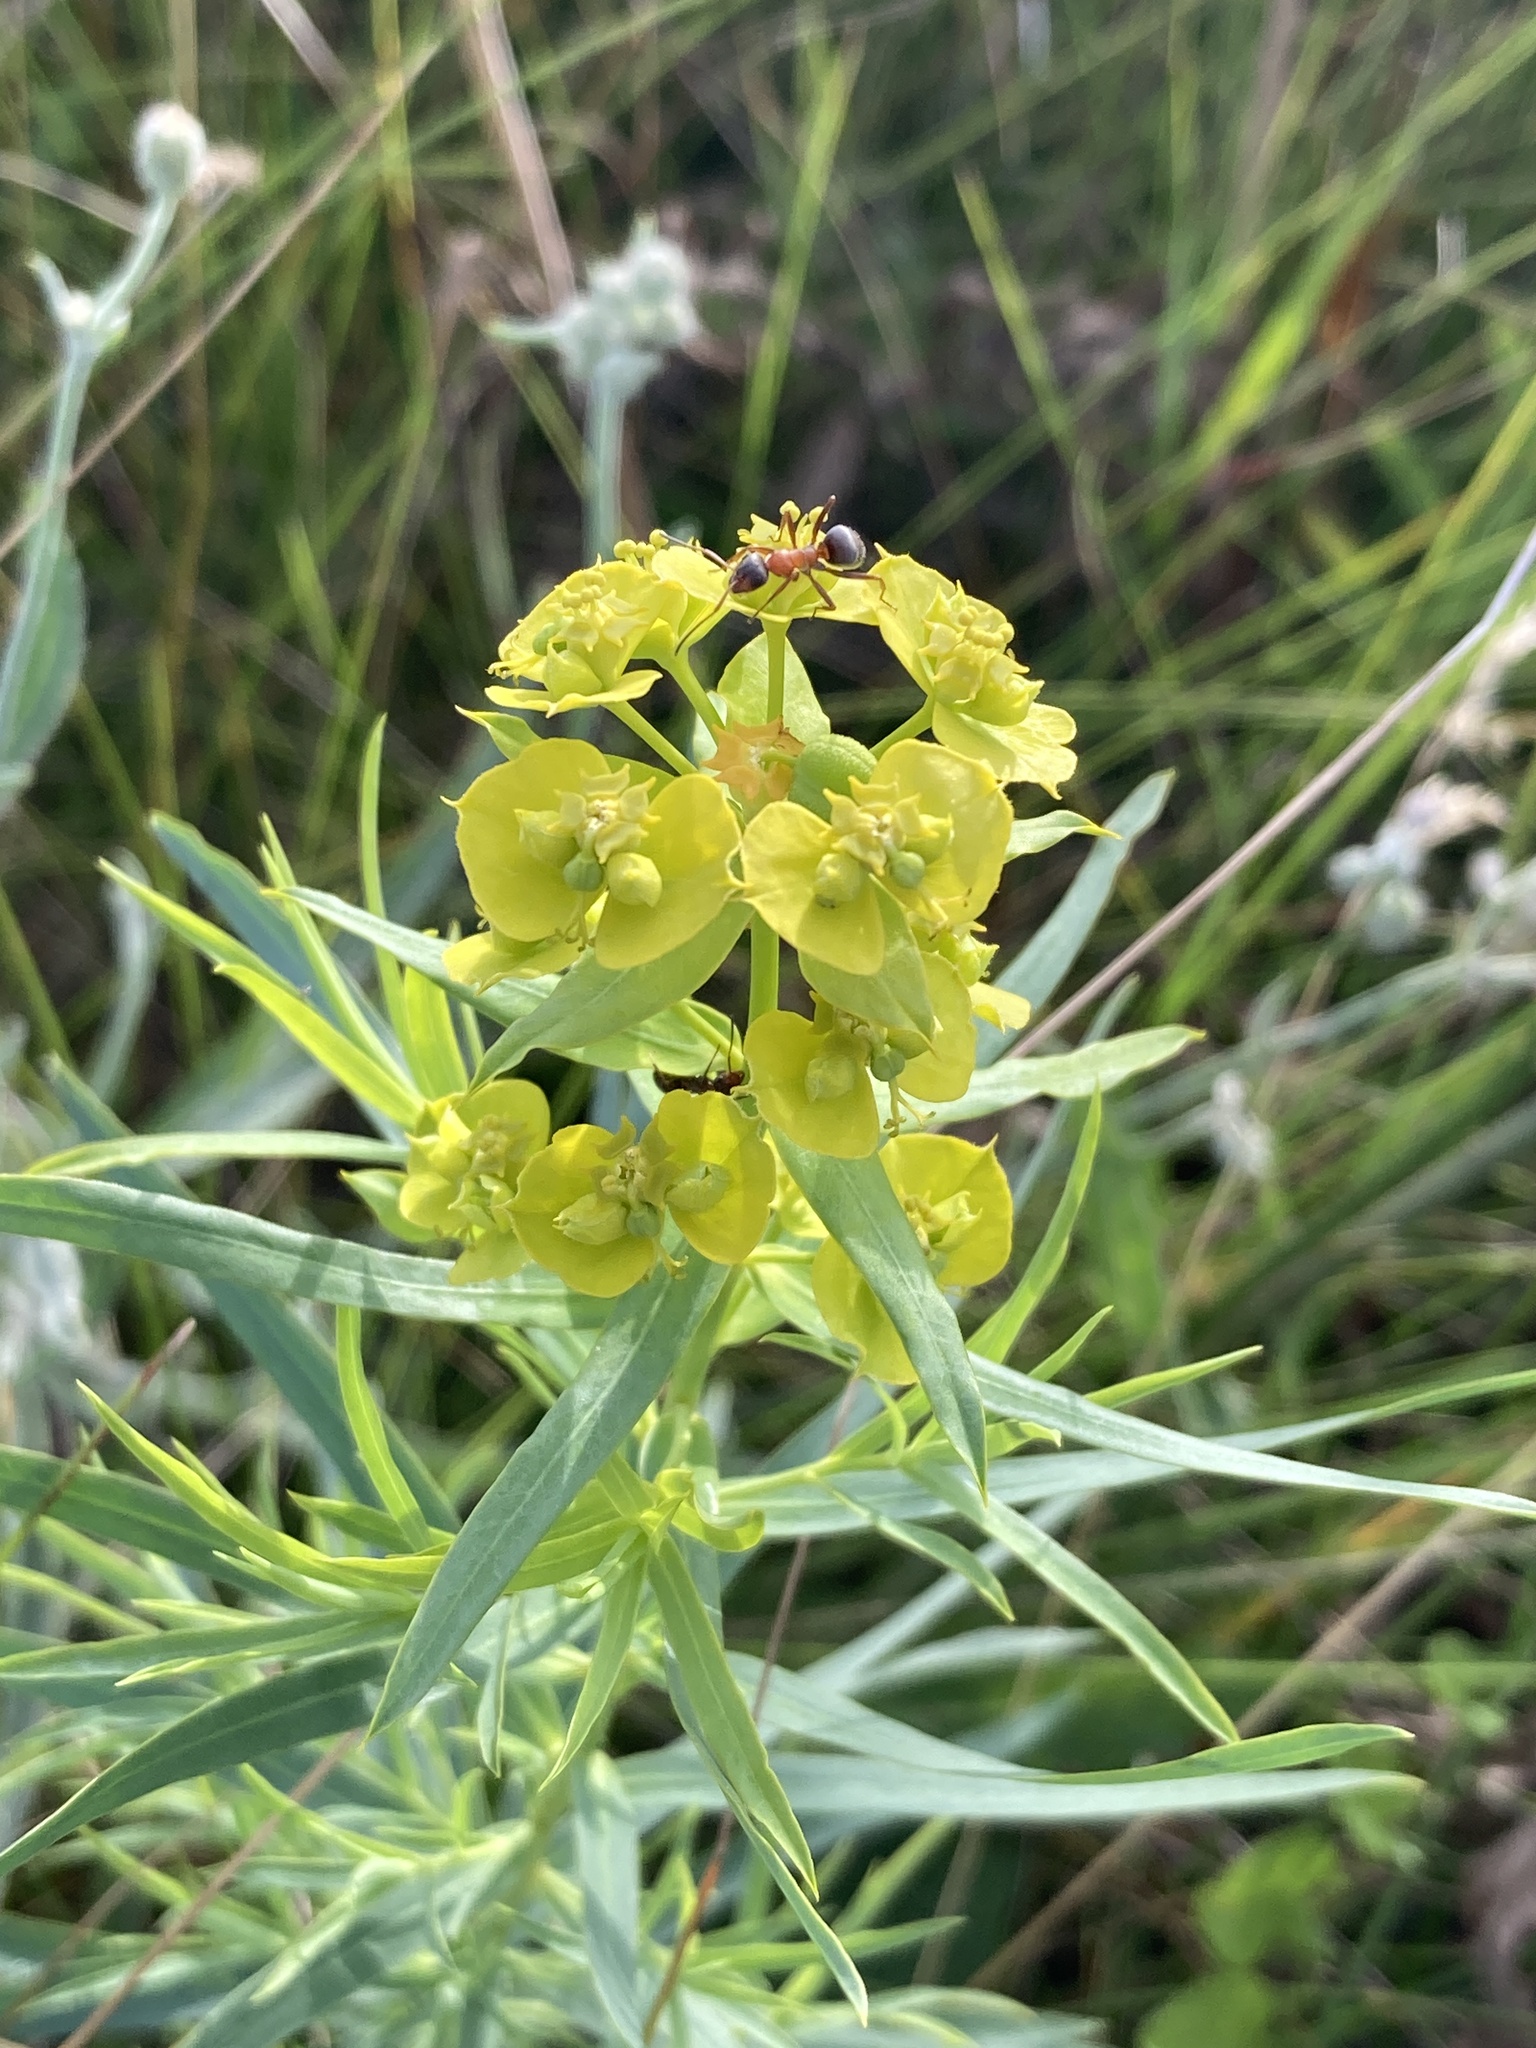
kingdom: Plantae
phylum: Tracheophyta
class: Magnoliopsida
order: Malpighiales
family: Euphorbiaceae
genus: Euphorbia
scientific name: Euphorbia virgata
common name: Leafy spurge
